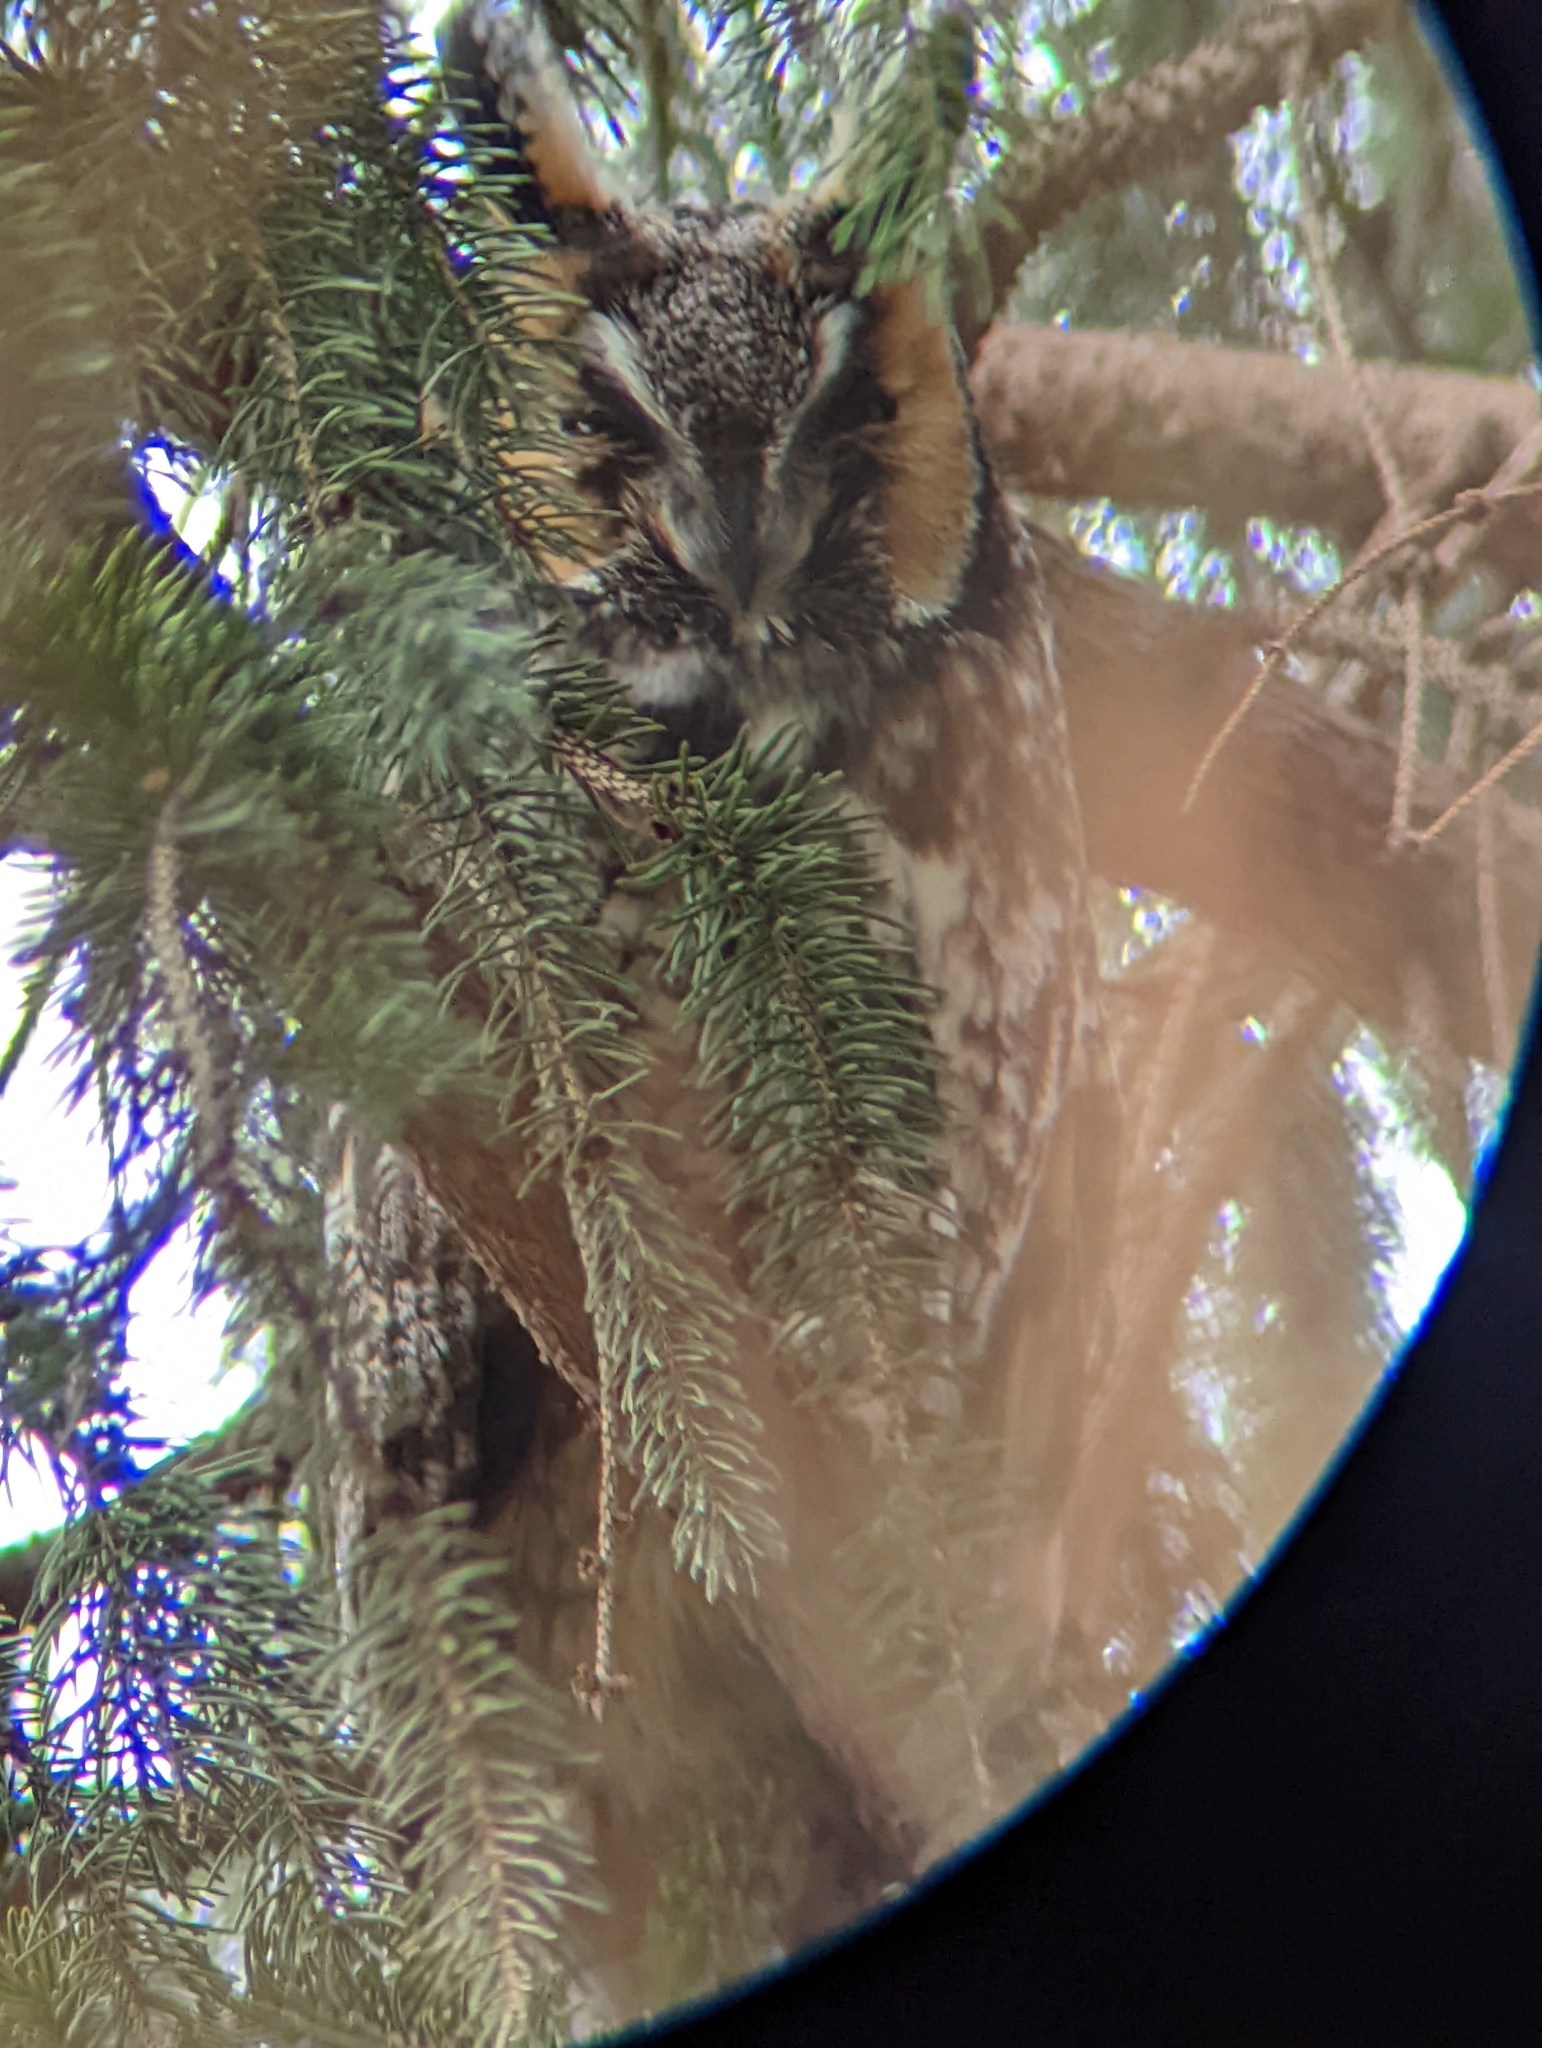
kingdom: Animalia
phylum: Chordata
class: Aves
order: Strigiformes
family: Strigidae
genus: Asio
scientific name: Asio otus
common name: Long-eared owl
